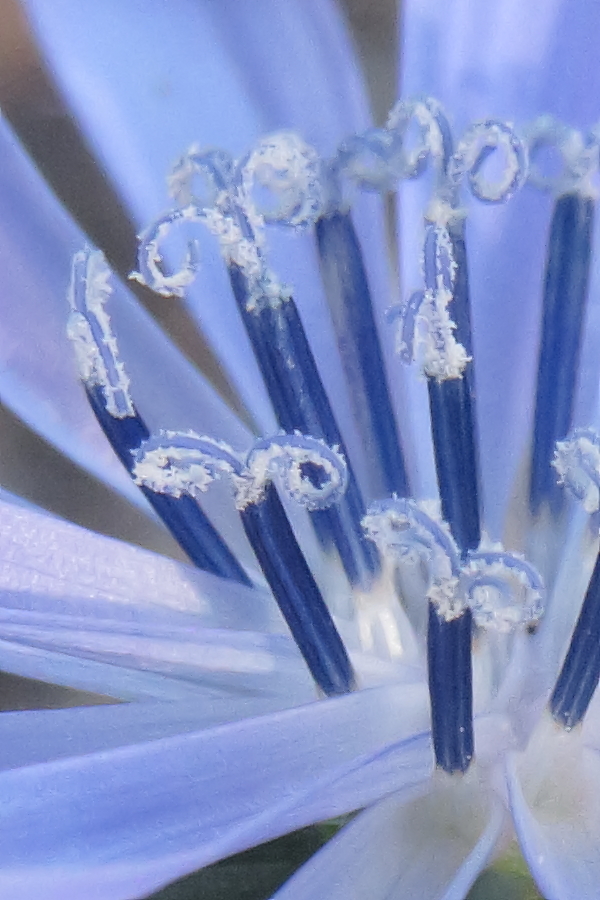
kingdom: Plantae
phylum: Tracheophyta
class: Magnoliopsida
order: Asterales
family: Asteraceae
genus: Cichorium
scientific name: Cichorium intybus
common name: Chicory
